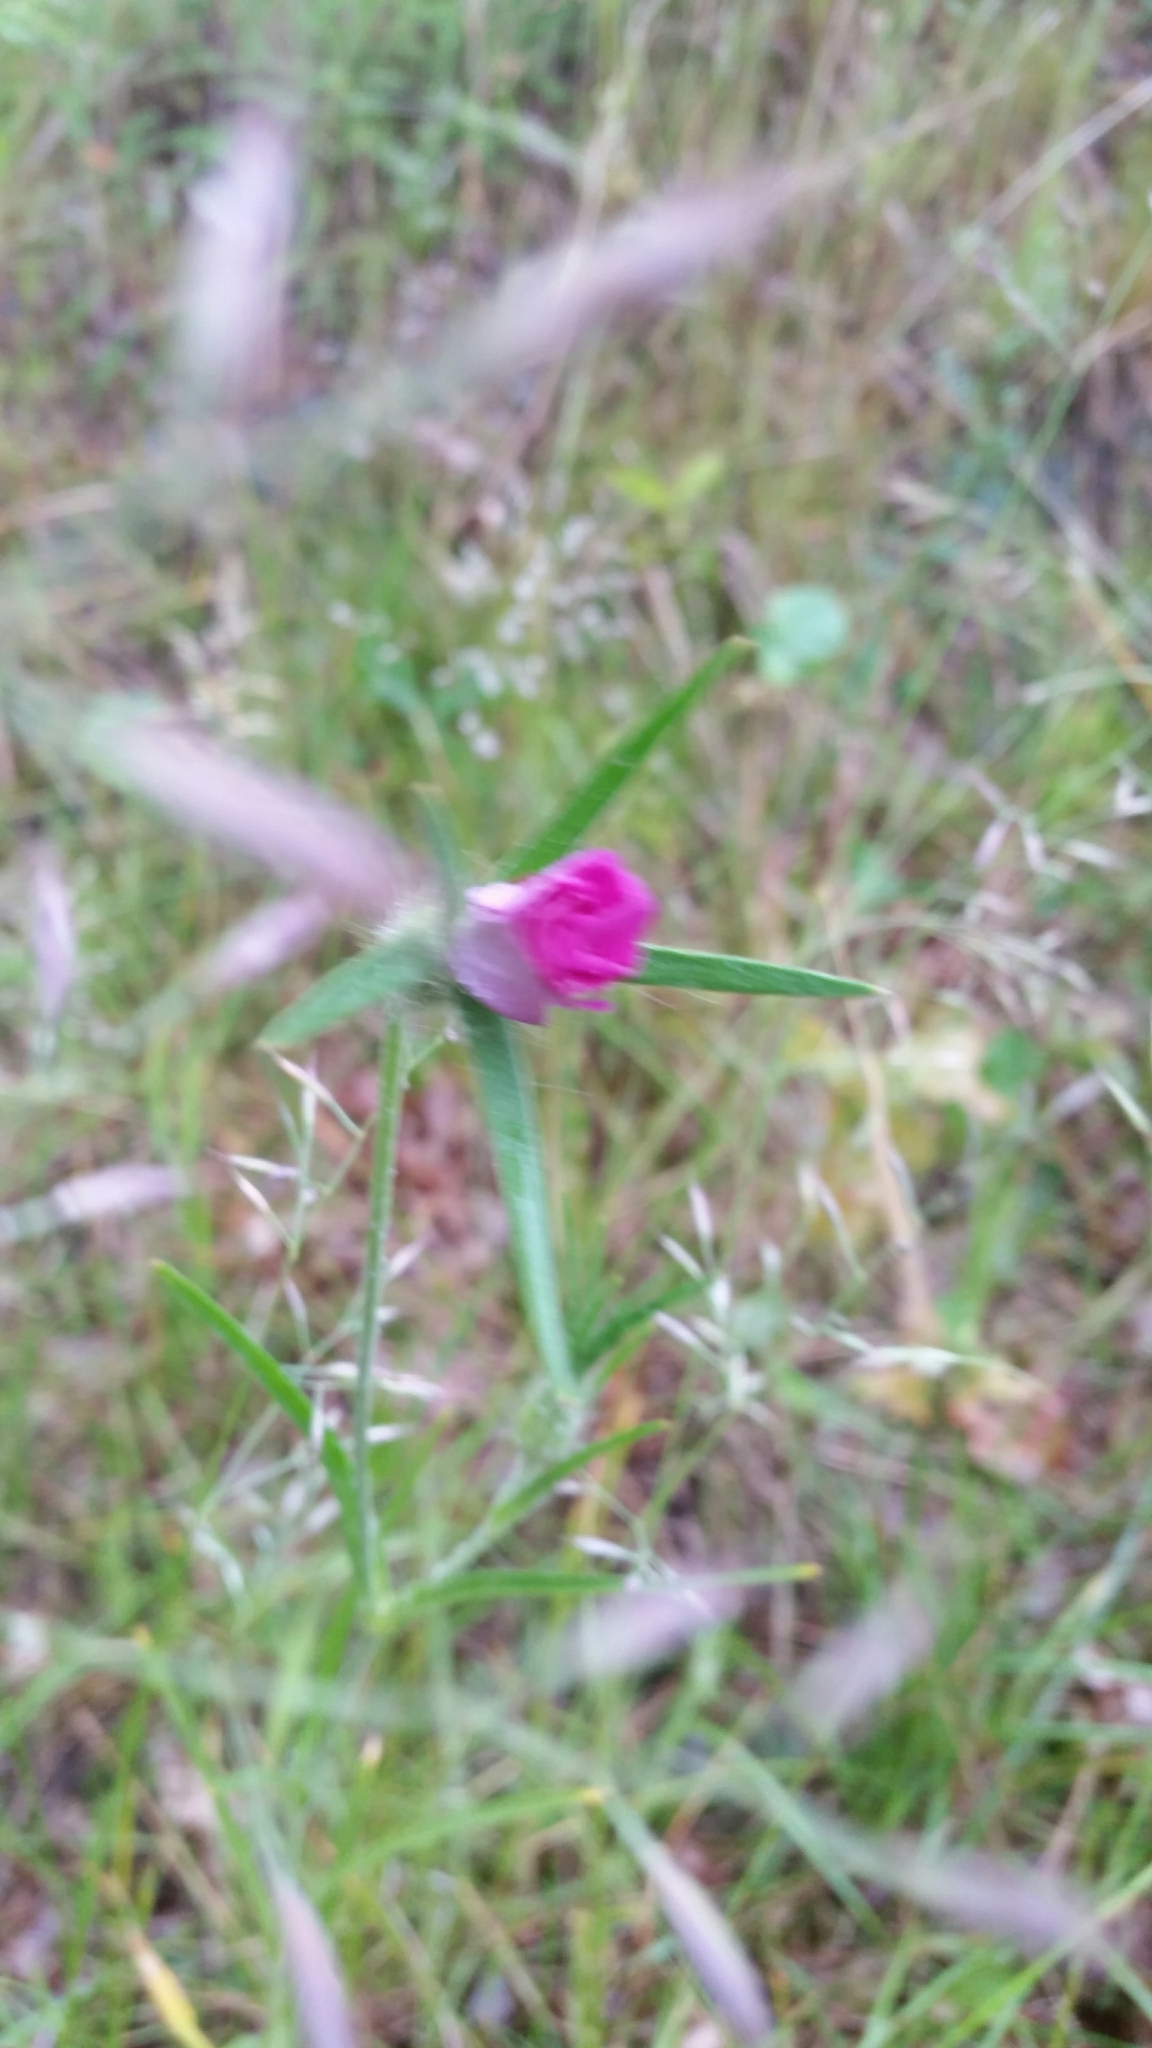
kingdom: Plantae
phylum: Tracheophyta
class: Magnoliopsida
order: Caryophyllales
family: Caryophyllaceae
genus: Agrostemma
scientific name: Agrostemma githago
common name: Common corncockle
